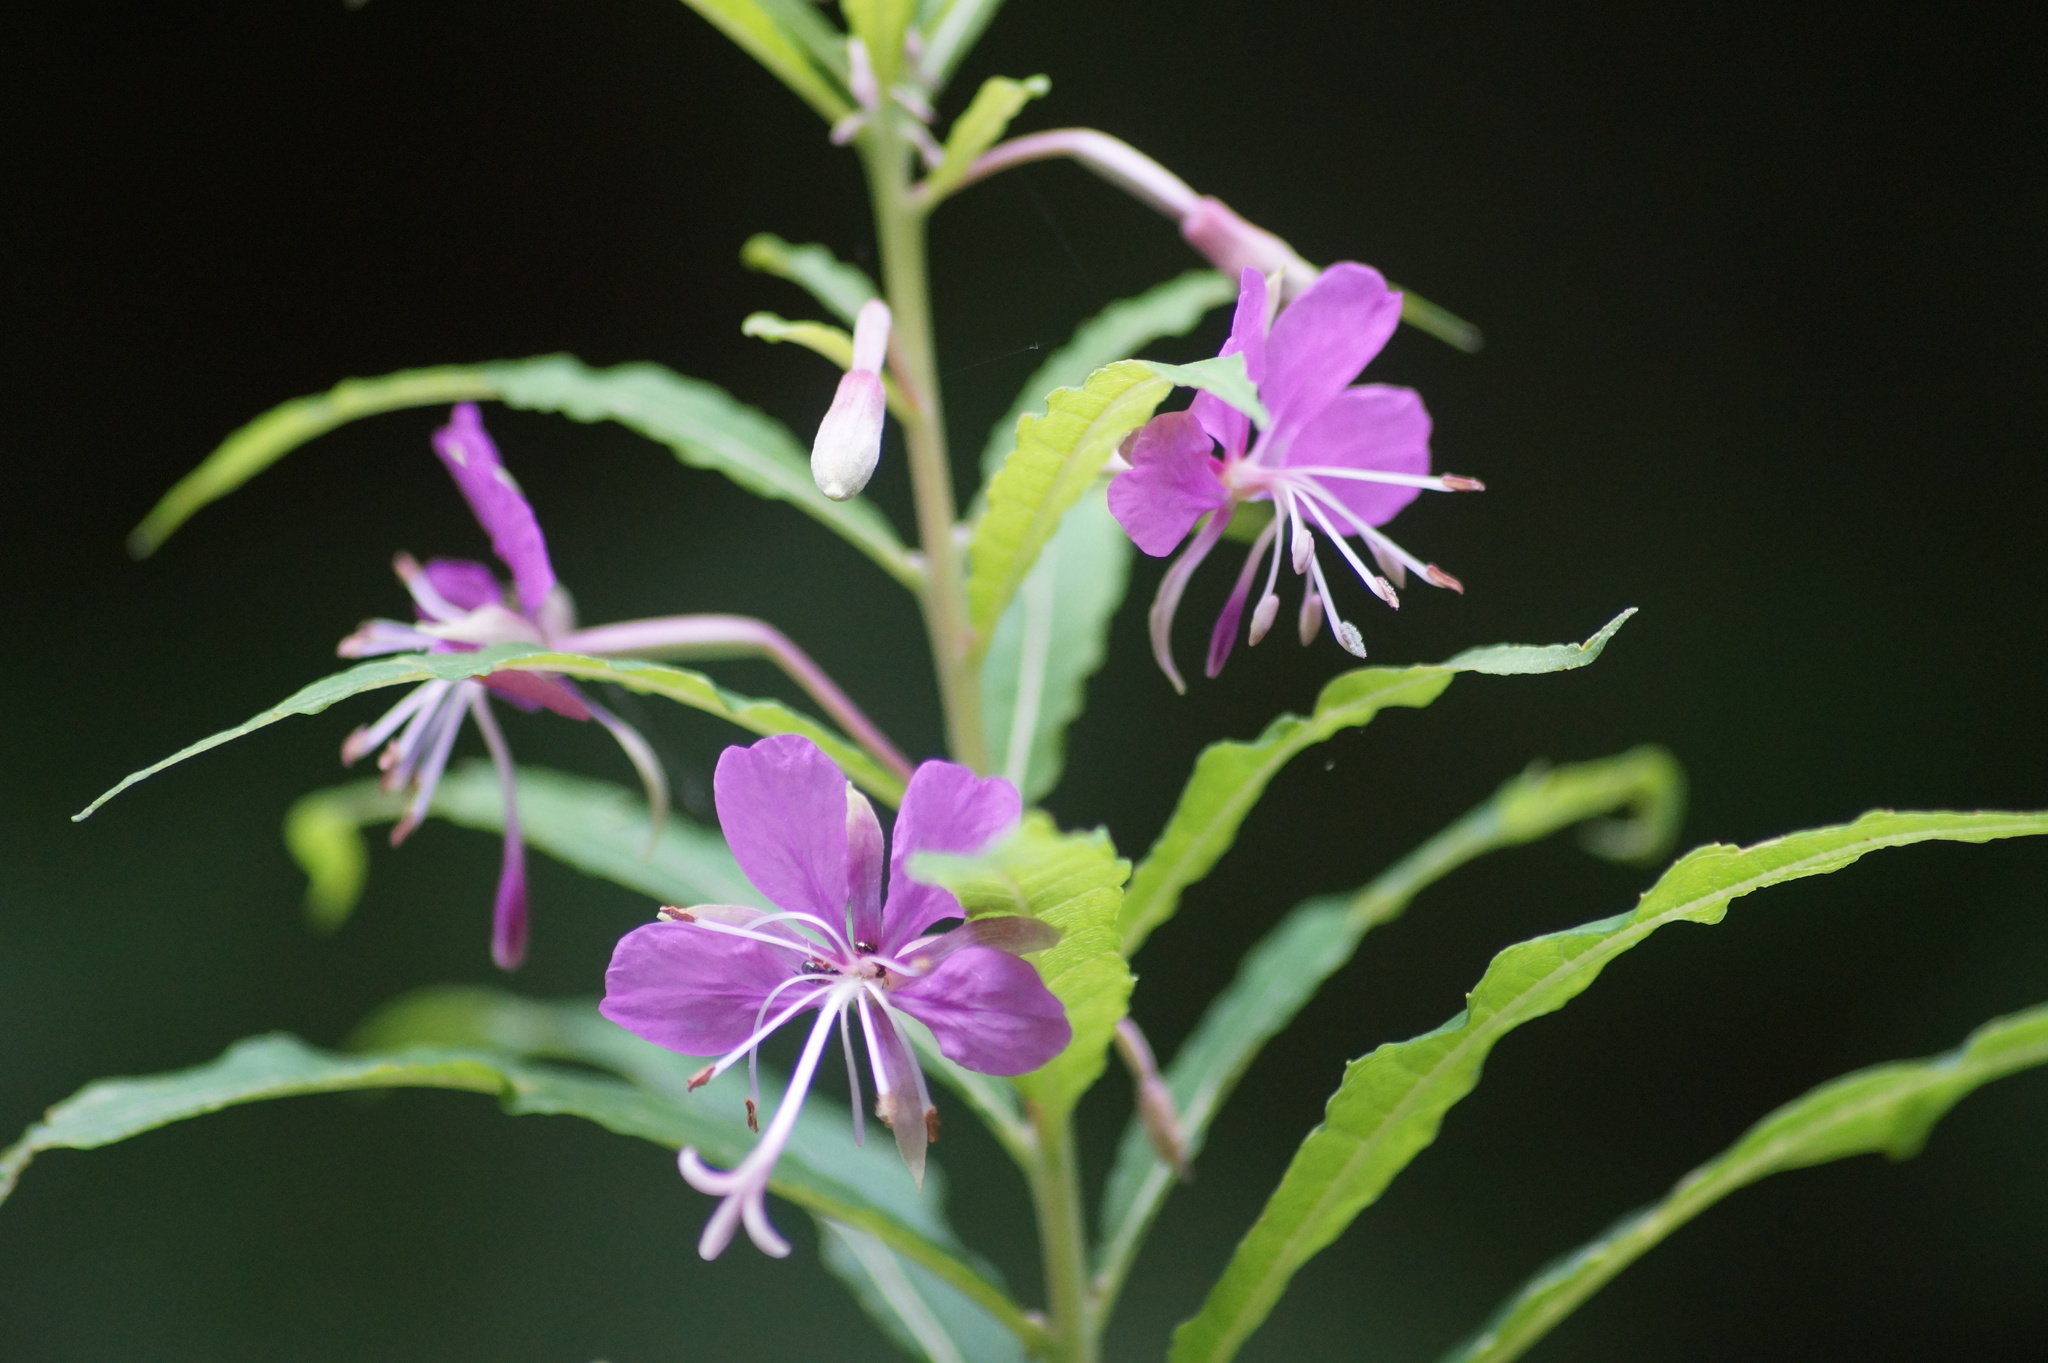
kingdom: Plantae
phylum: Tracheophyta
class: Magnoliopsida
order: Myrtales
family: Onagraceae
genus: Chamaenerion
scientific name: Chamaenerion angustifolium
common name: Fireweed
